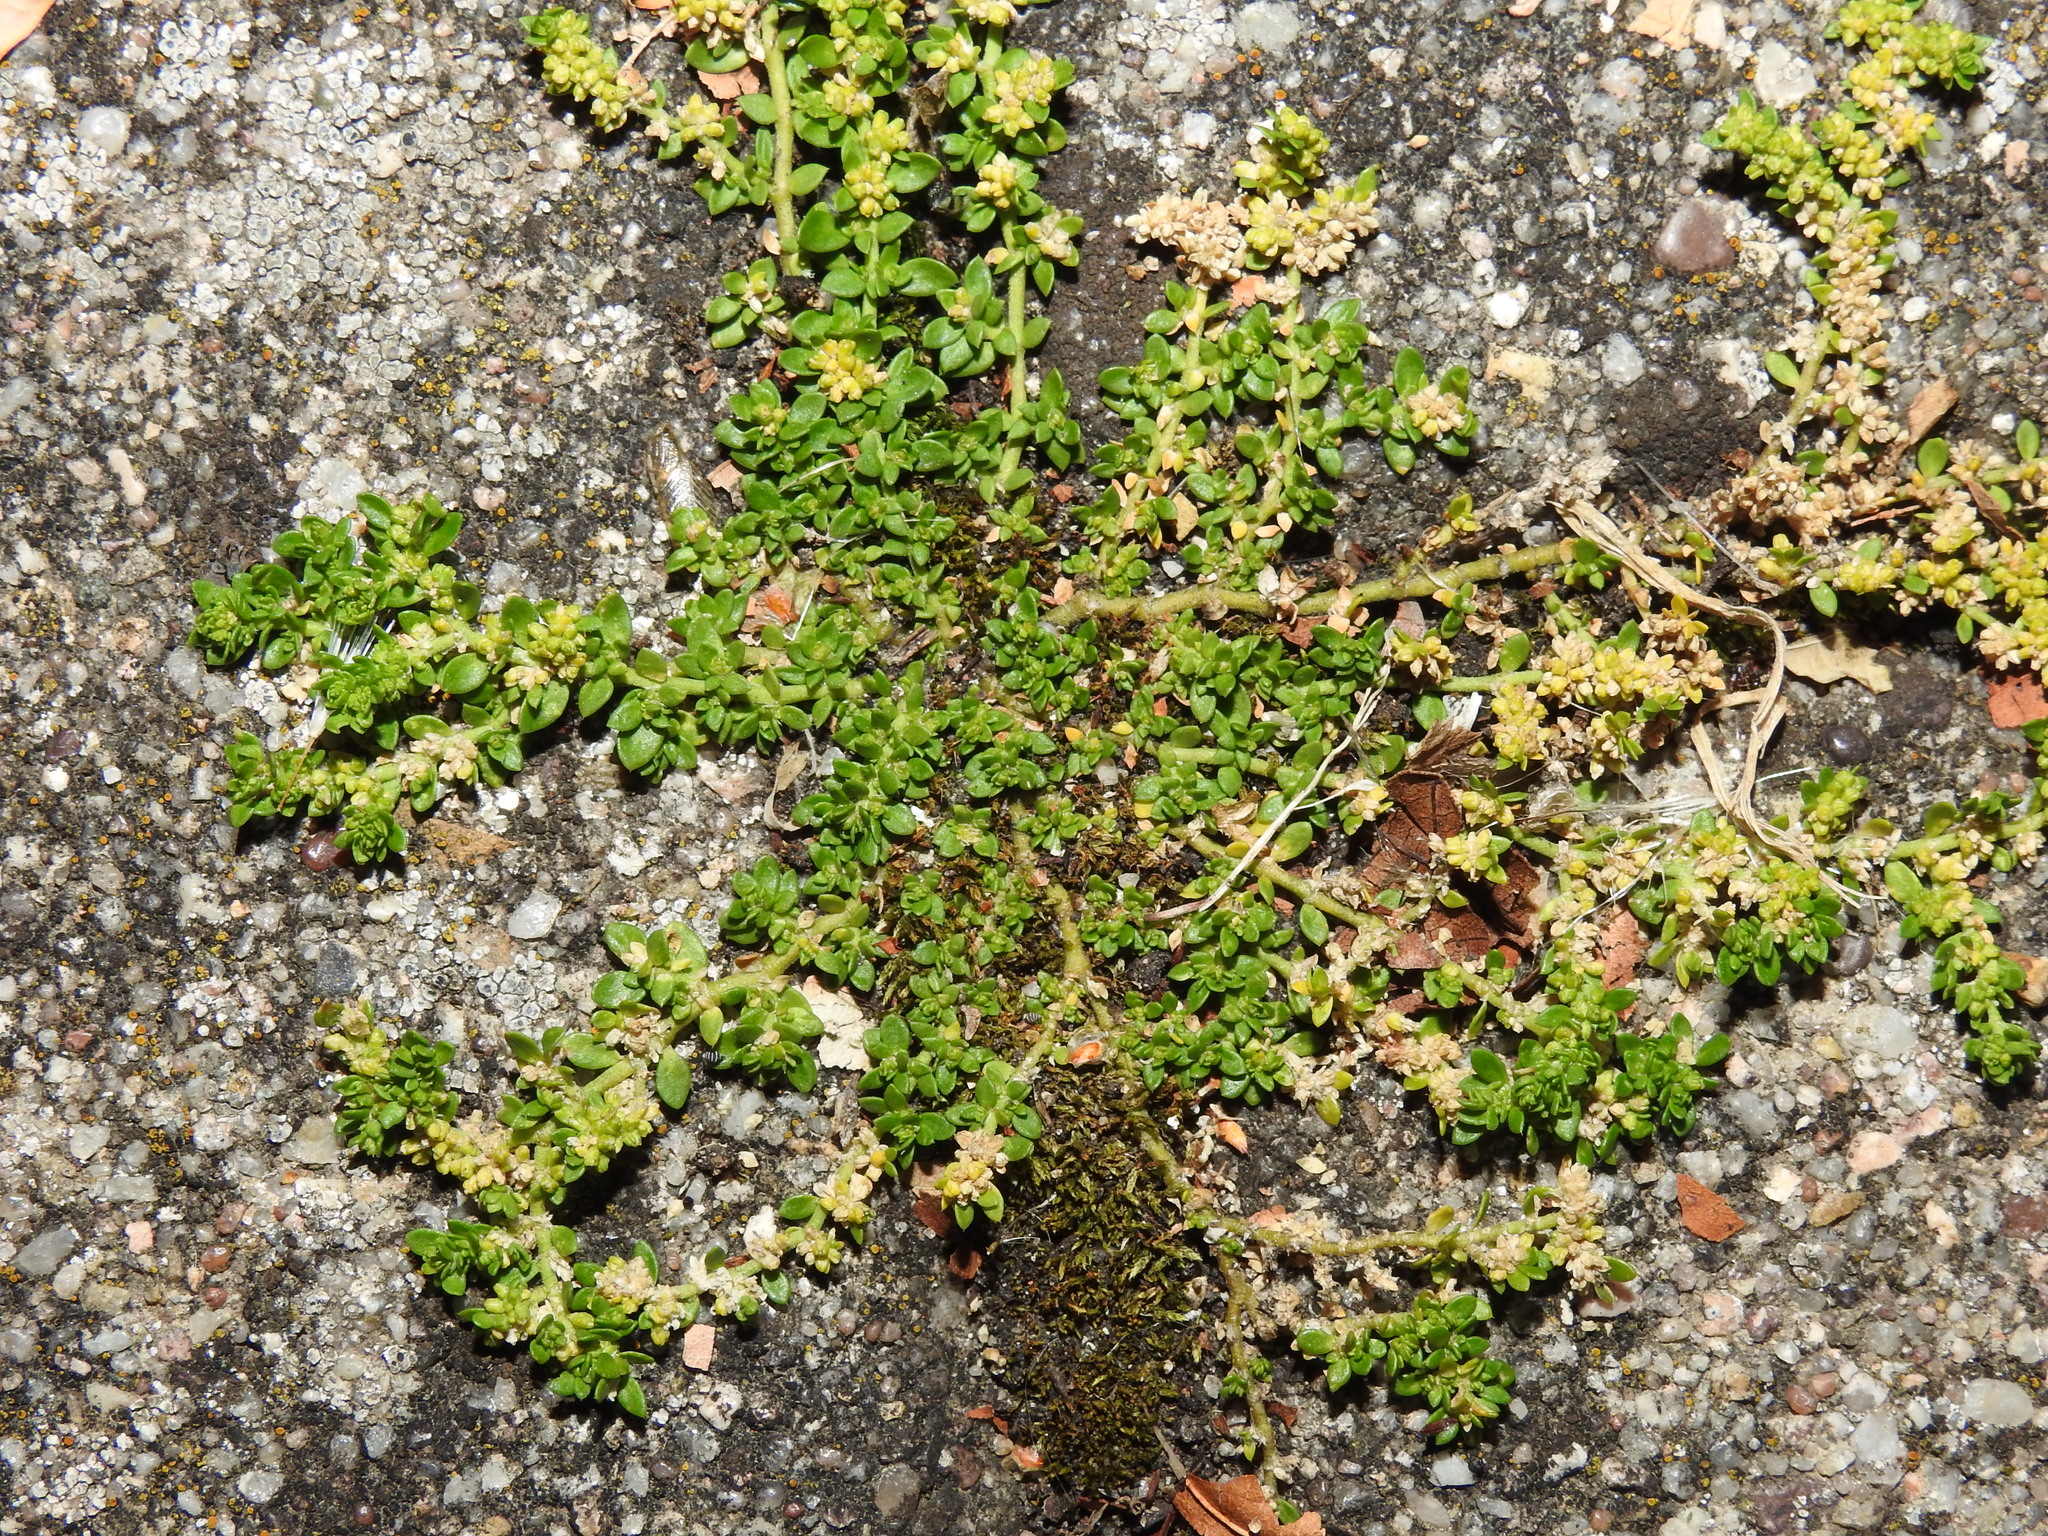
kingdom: Plantae
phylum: Tracheophyta
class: Magnoliopsida
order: Caryophyllales
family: Caryophyllaceae
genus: Herniaria
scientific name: Herniaria glabra
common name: Smooth rupturewort
